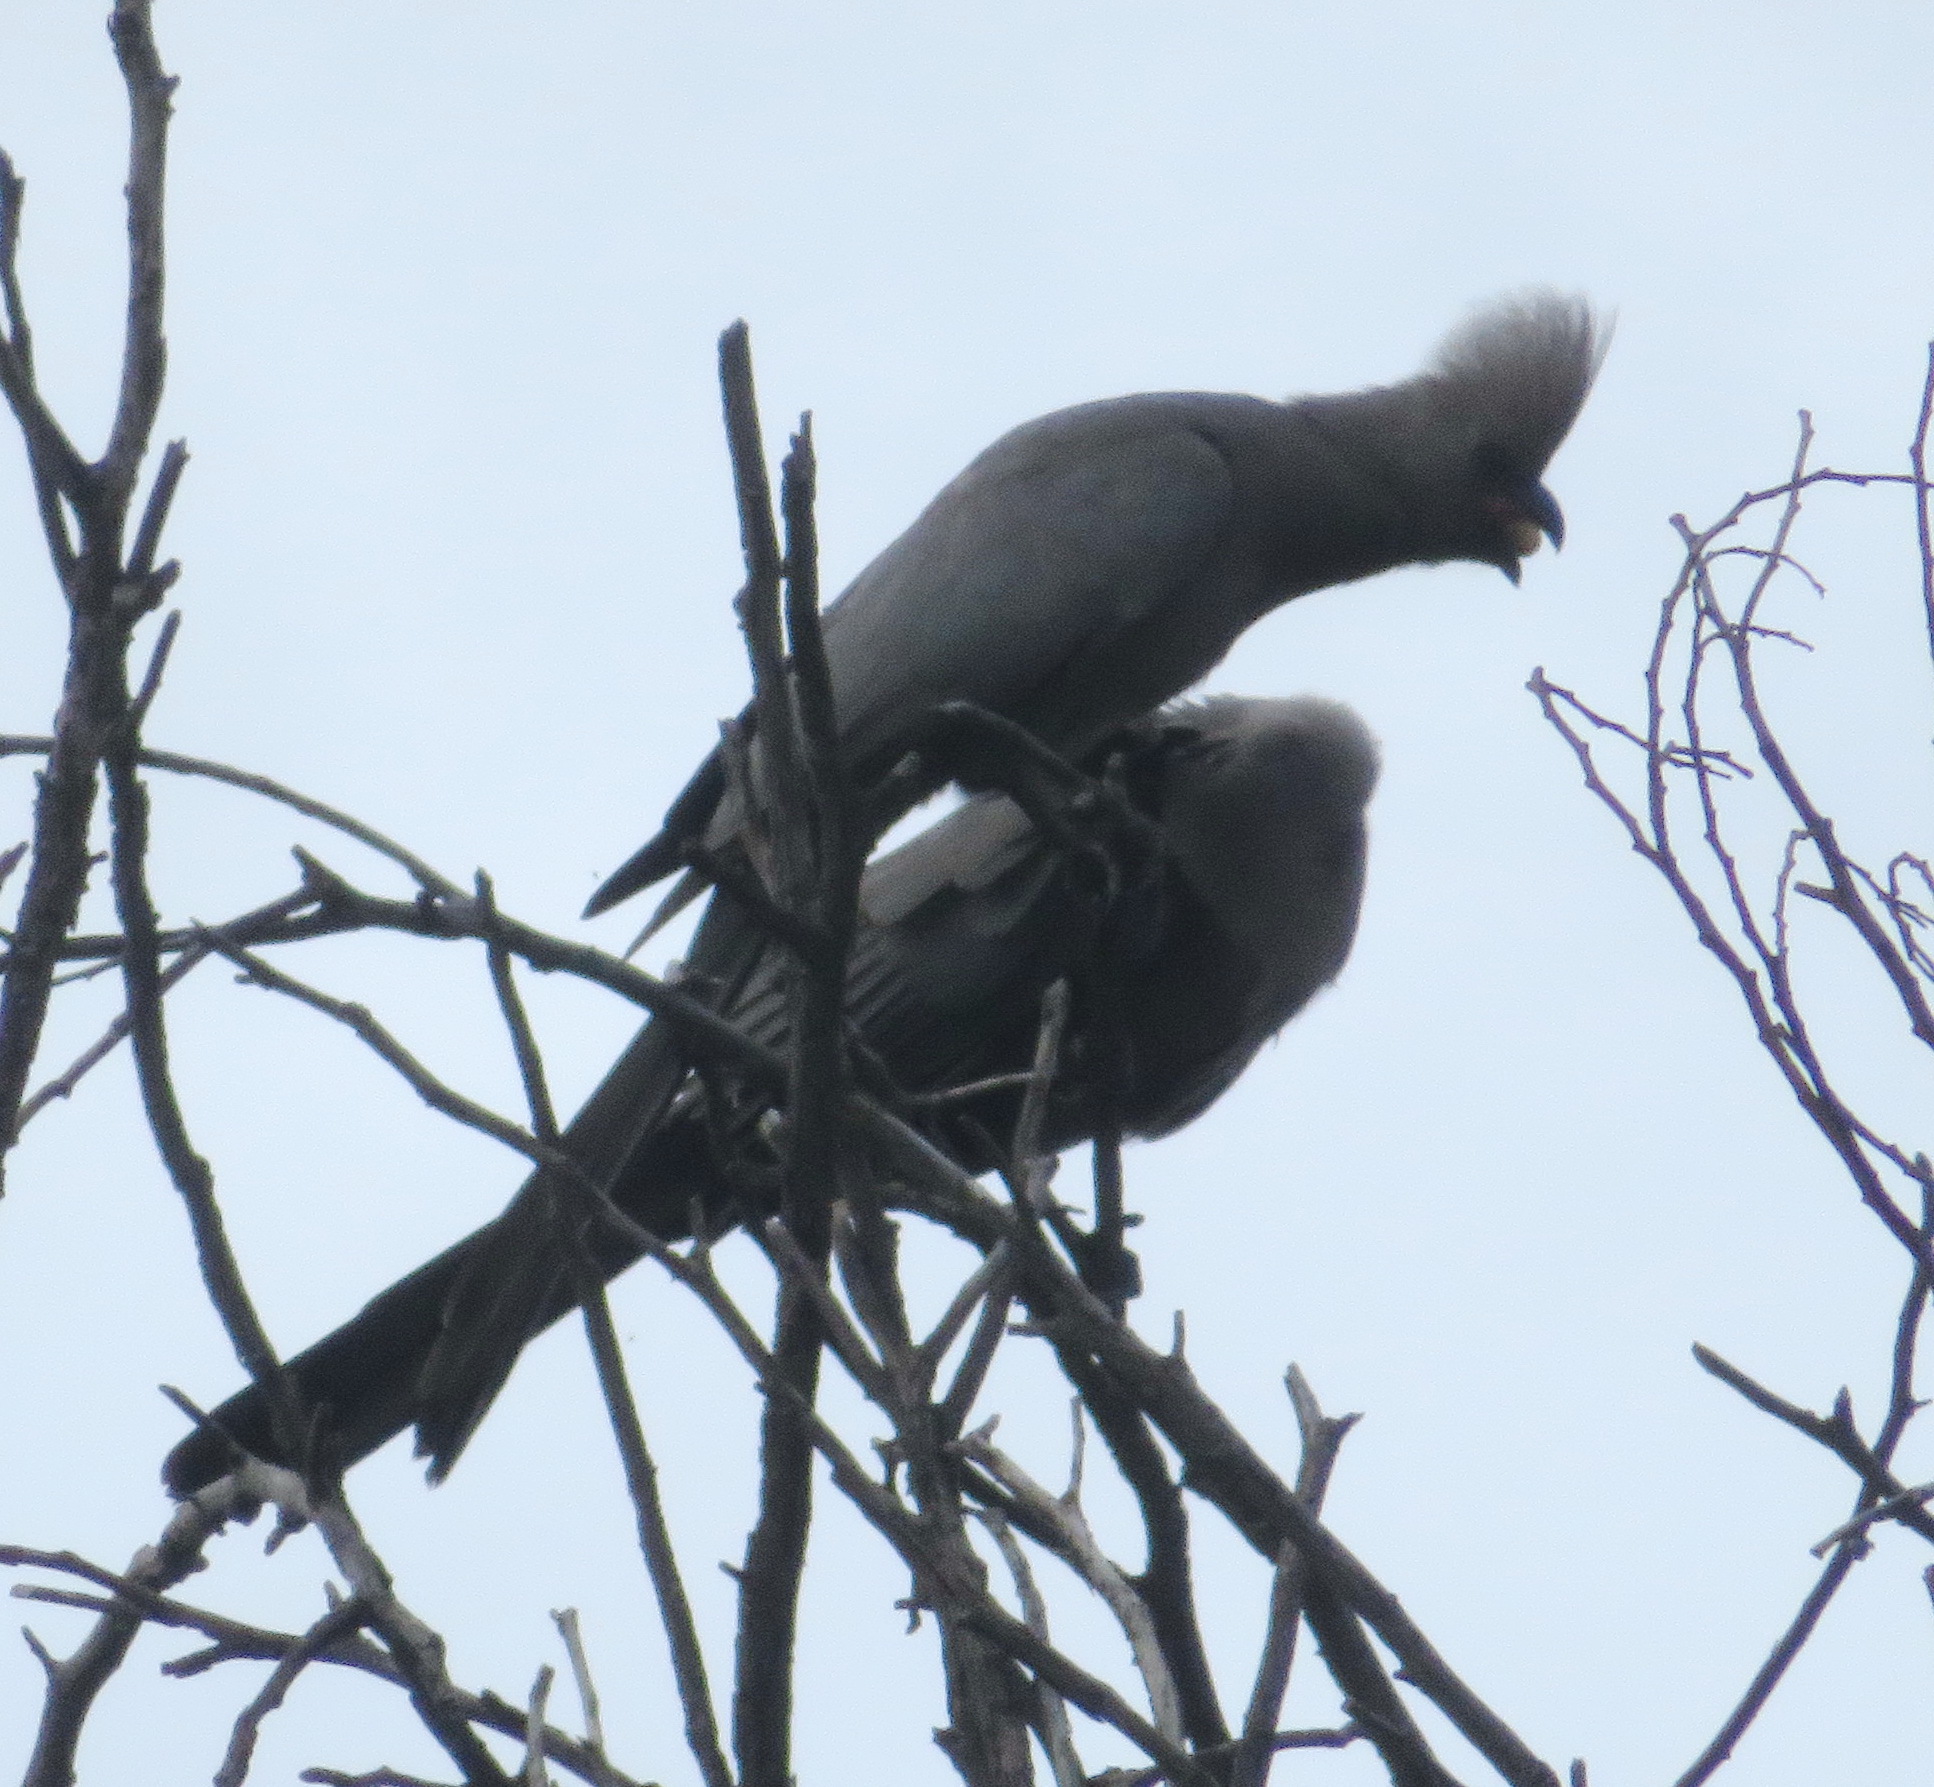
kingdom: Animalia
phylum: Chordata
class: Aves
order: Musophagiformes
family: Musophagidae
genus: Corythaixoides
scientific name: Corythaixoides concolor
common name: Grey go-away-bird
